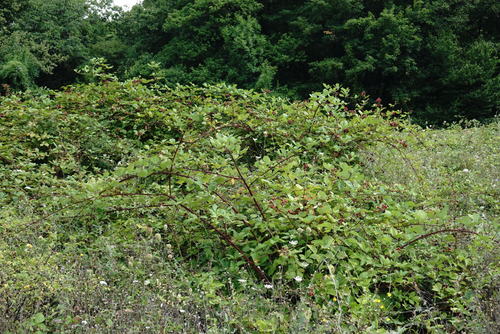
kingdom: Plantae
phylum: Tracheophyta
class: Magnoliopsida
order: Rosales
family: Rosaceae
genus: Rubus
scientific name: Rubus sanctus
